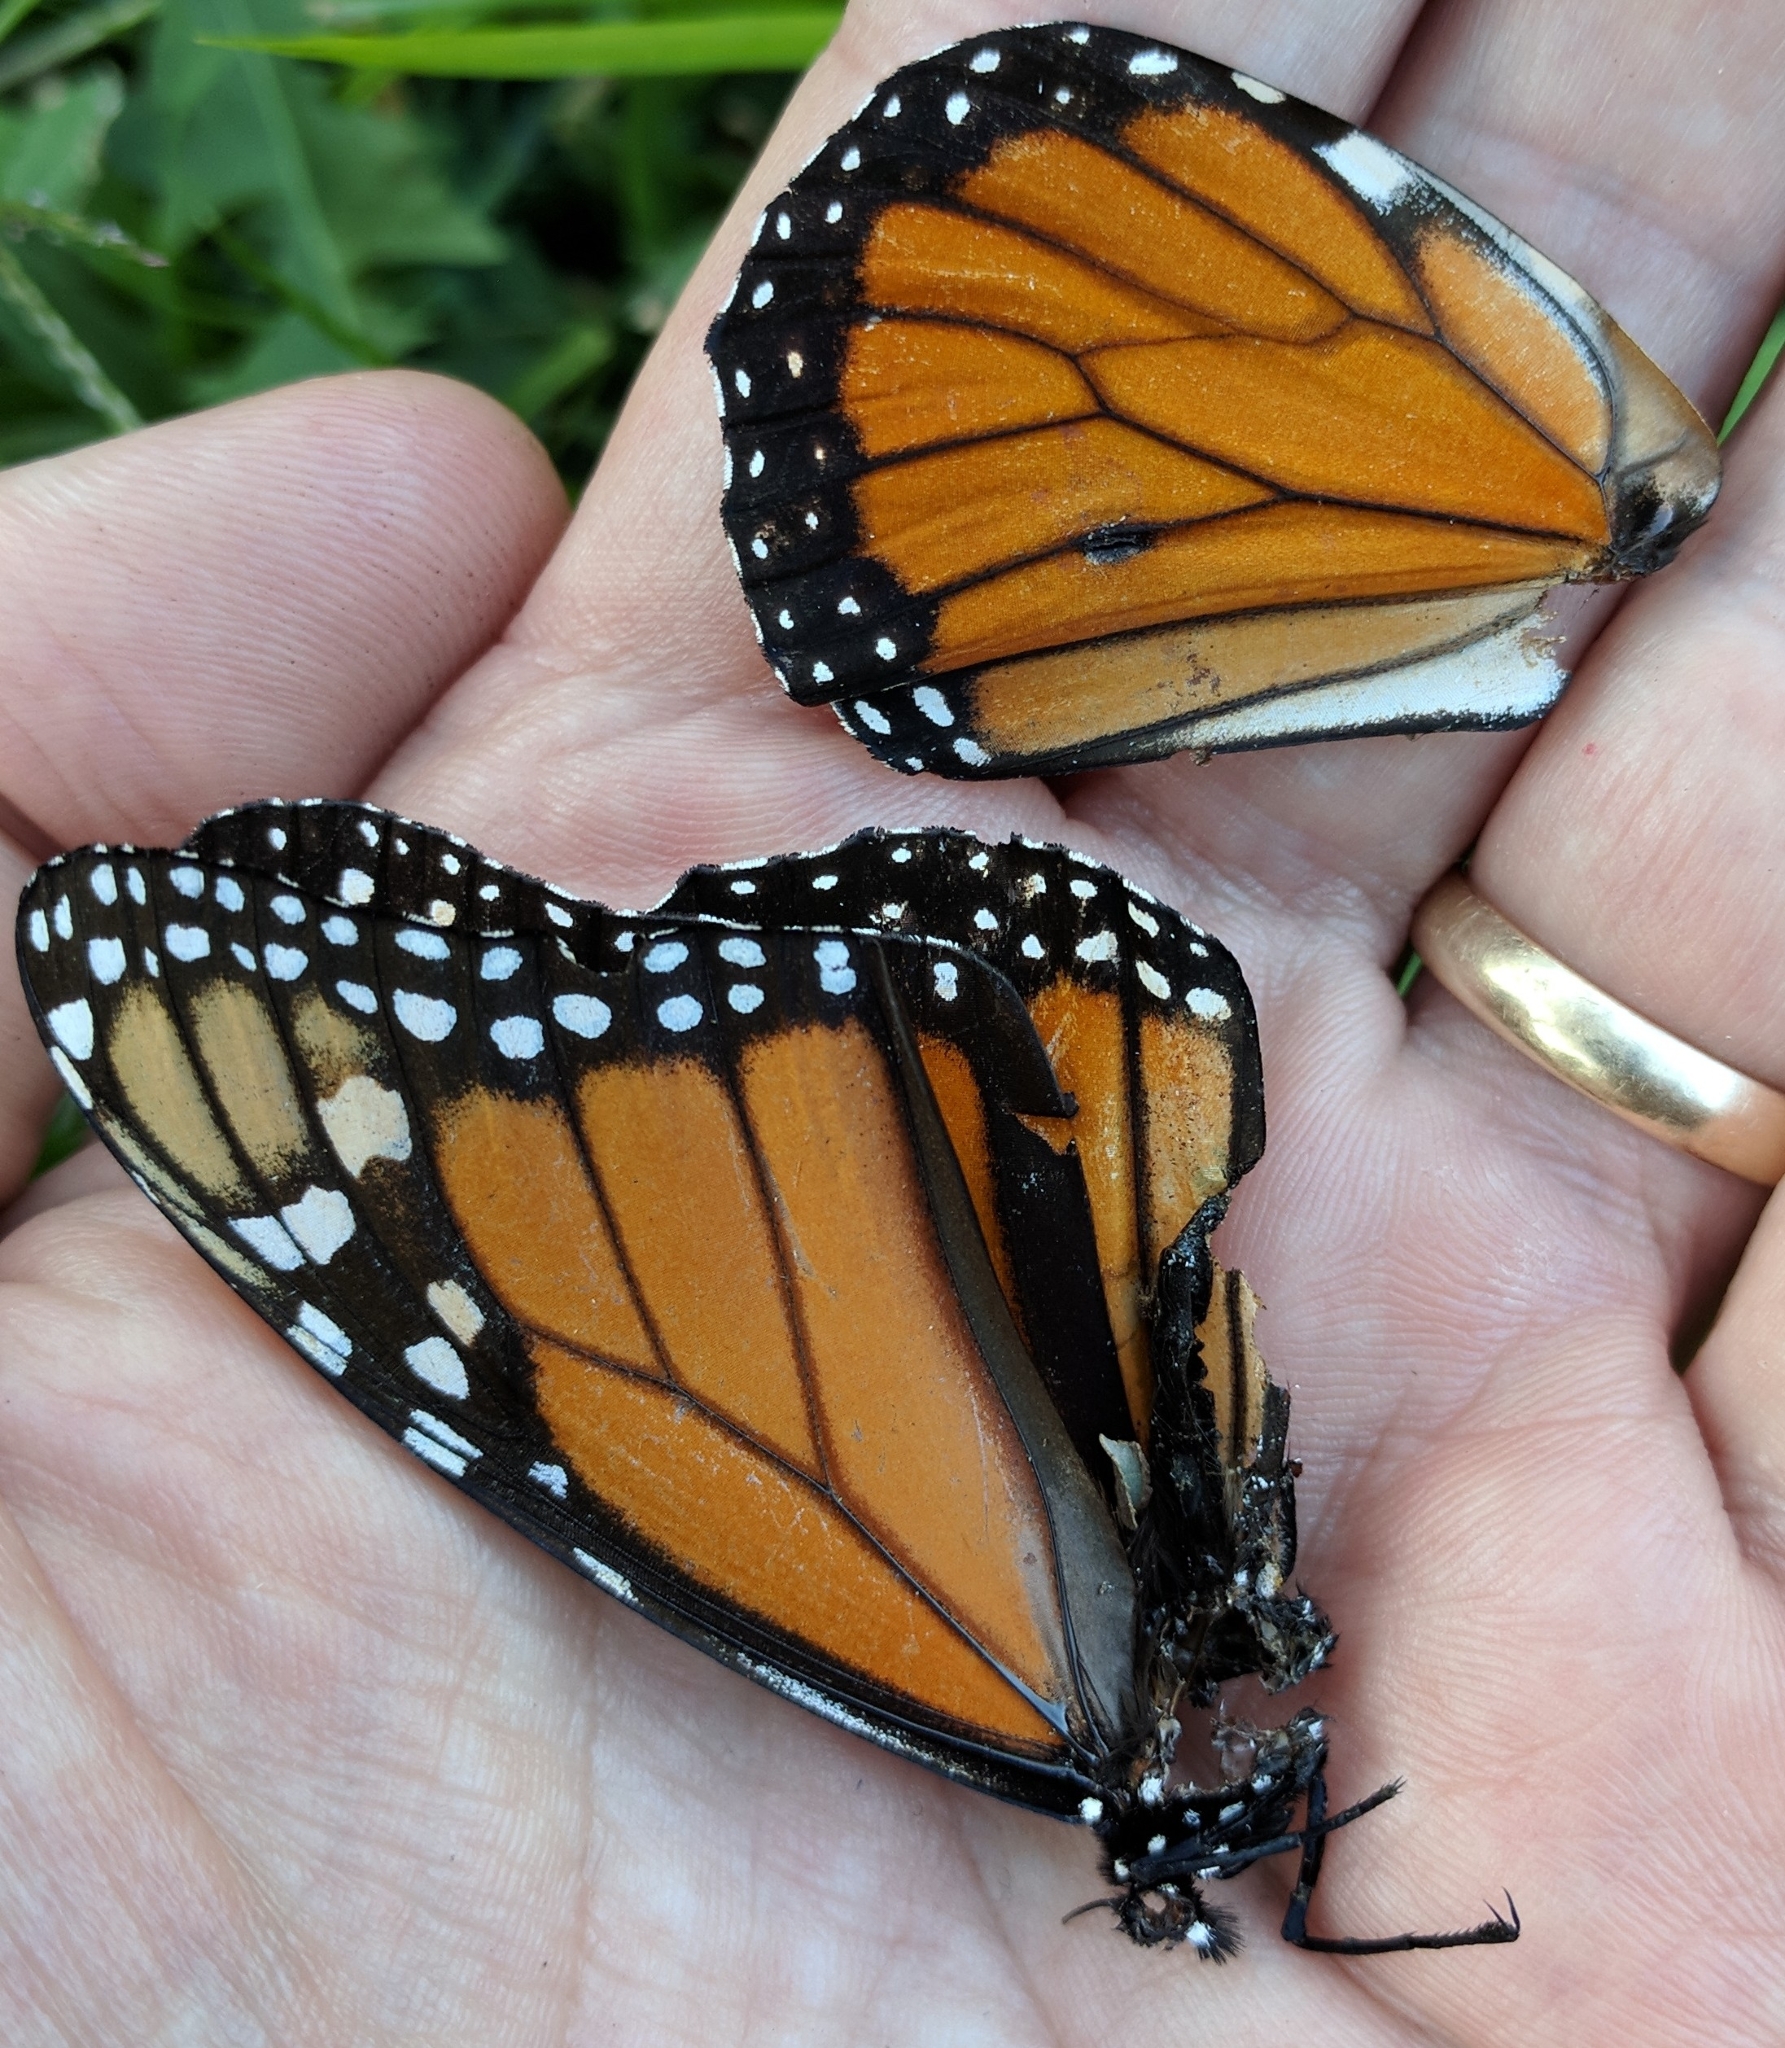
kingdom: Animalia
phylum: Arthropoda
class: Insecta
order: Lepidoptera
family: Nymphalidae
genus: Danaus
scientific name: Danaus plexippus
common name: Monarch
